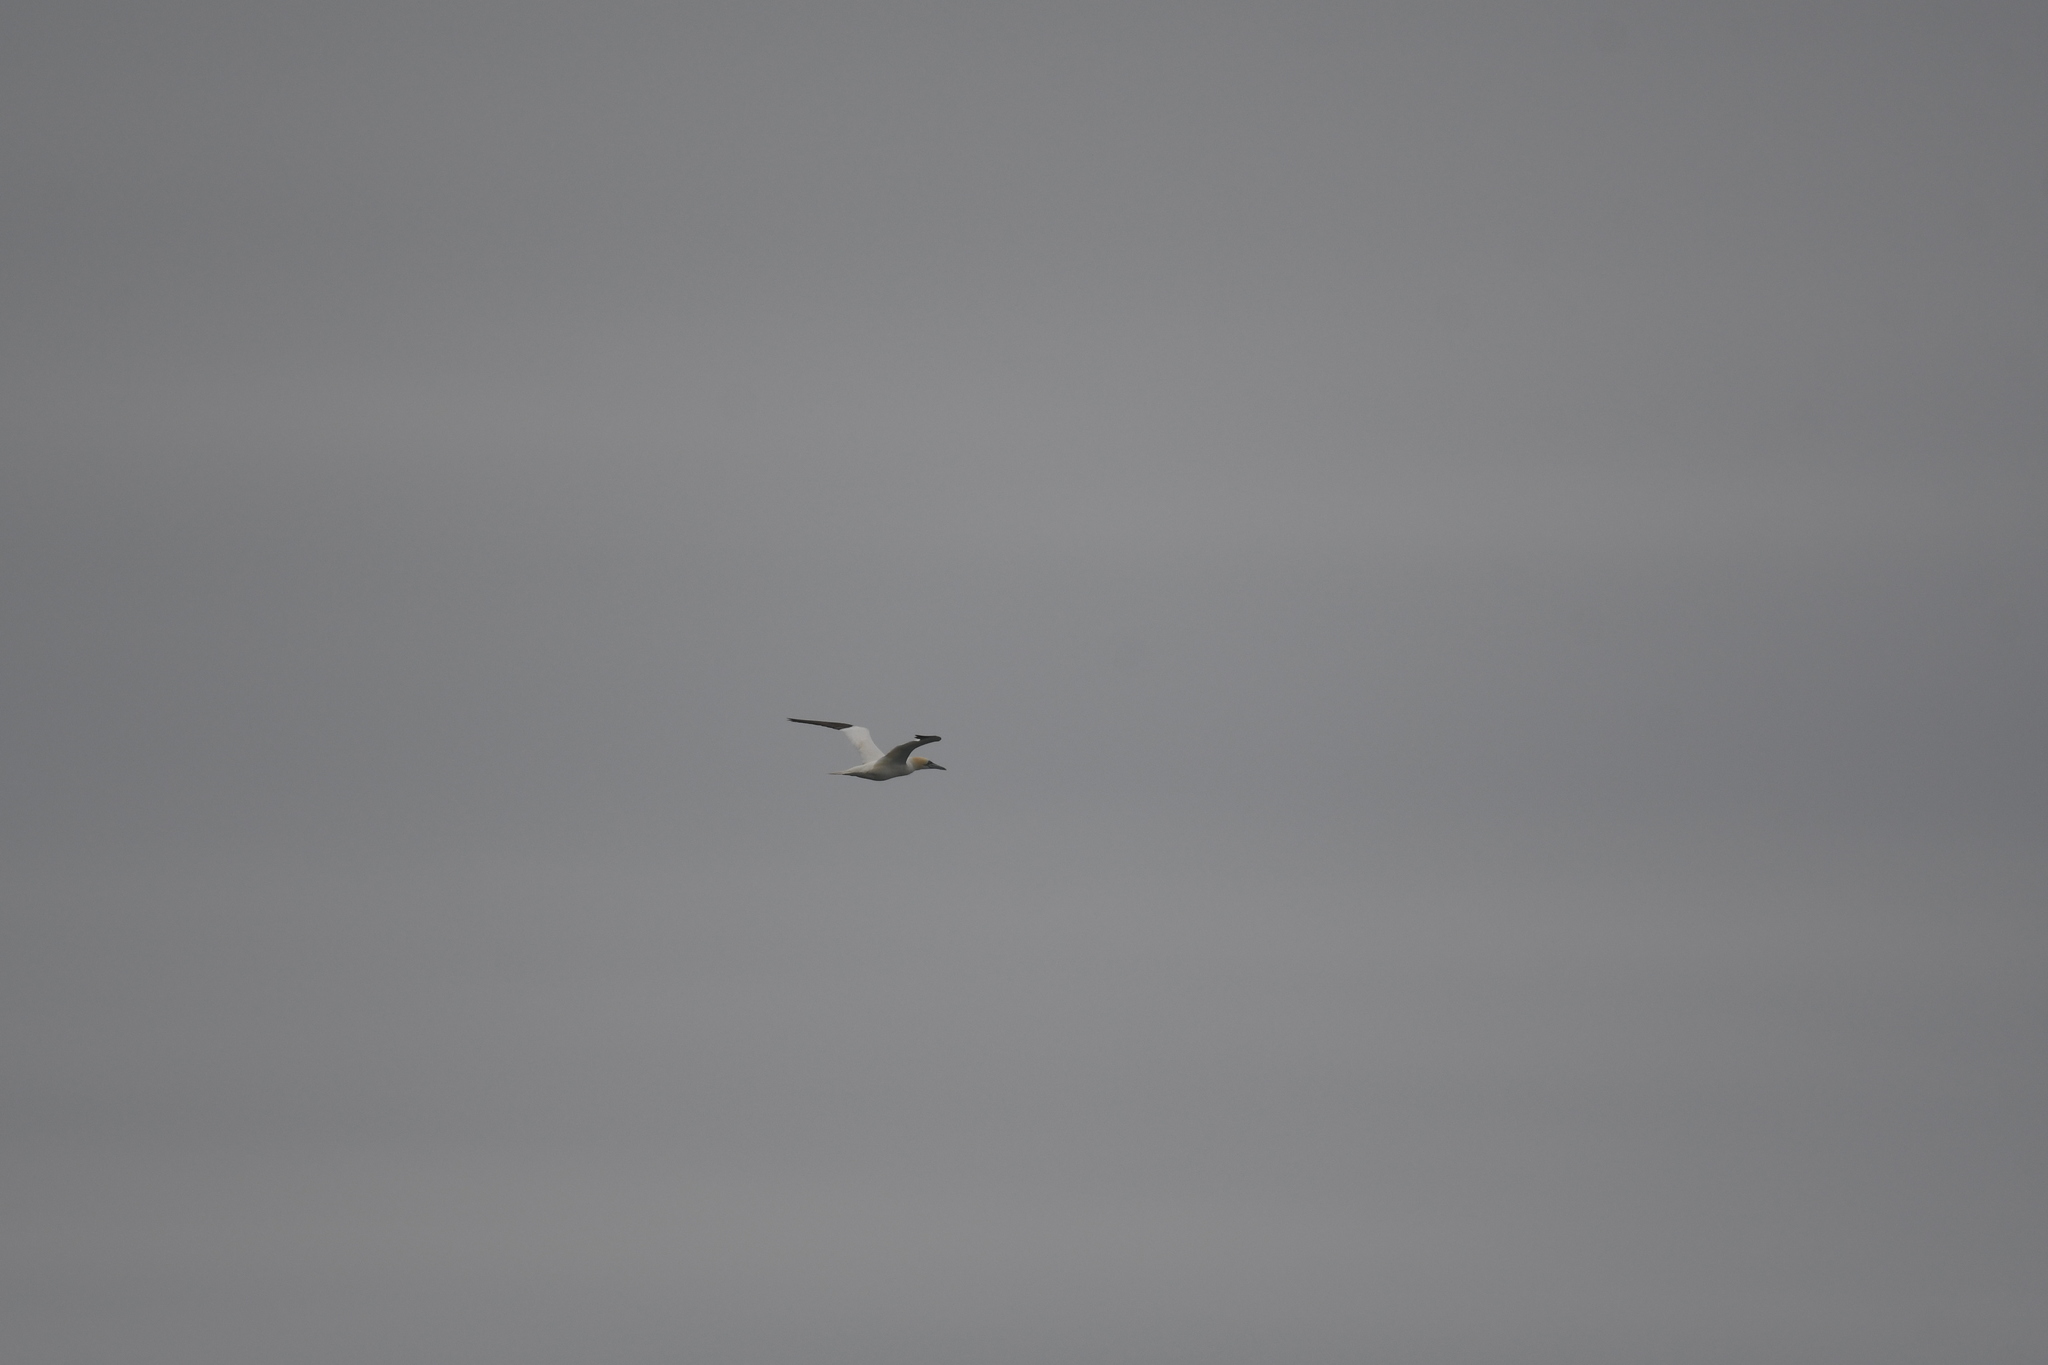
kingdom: Animalia
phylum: Chordata
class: Aves
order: Suliformes
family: Sulidae
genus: Morus
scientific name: Morus bassanus
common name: Northern gannet
